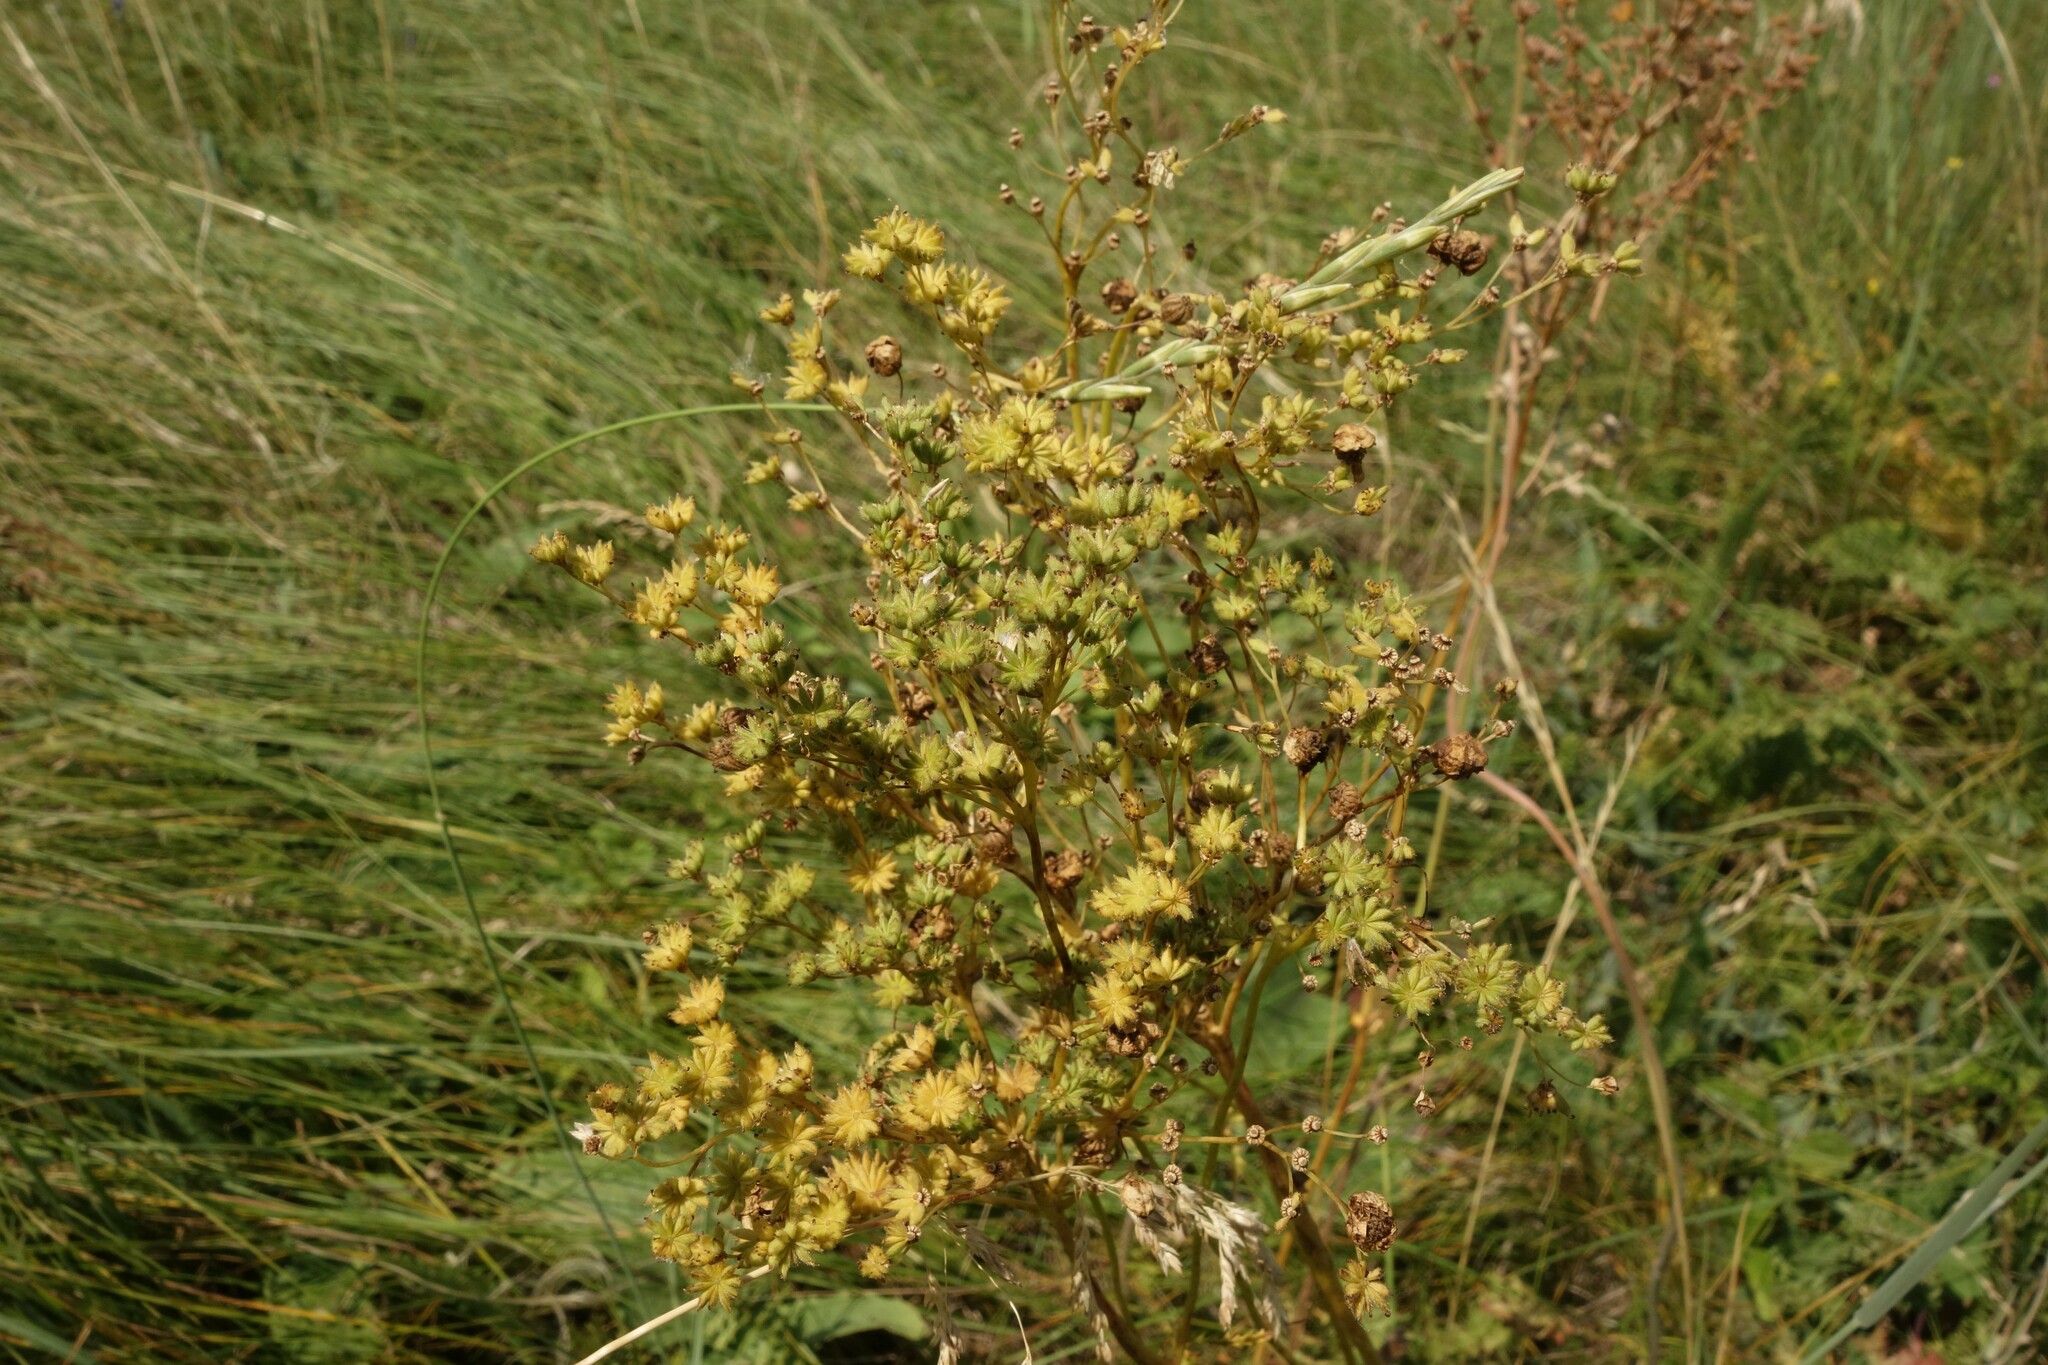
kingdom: Plantae
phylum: Tracheophyta
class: Magnoliopsida
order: Rosales
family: Rosaceae
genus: Filipendula
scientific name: Filipendula vulgaris
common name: Dropwort
